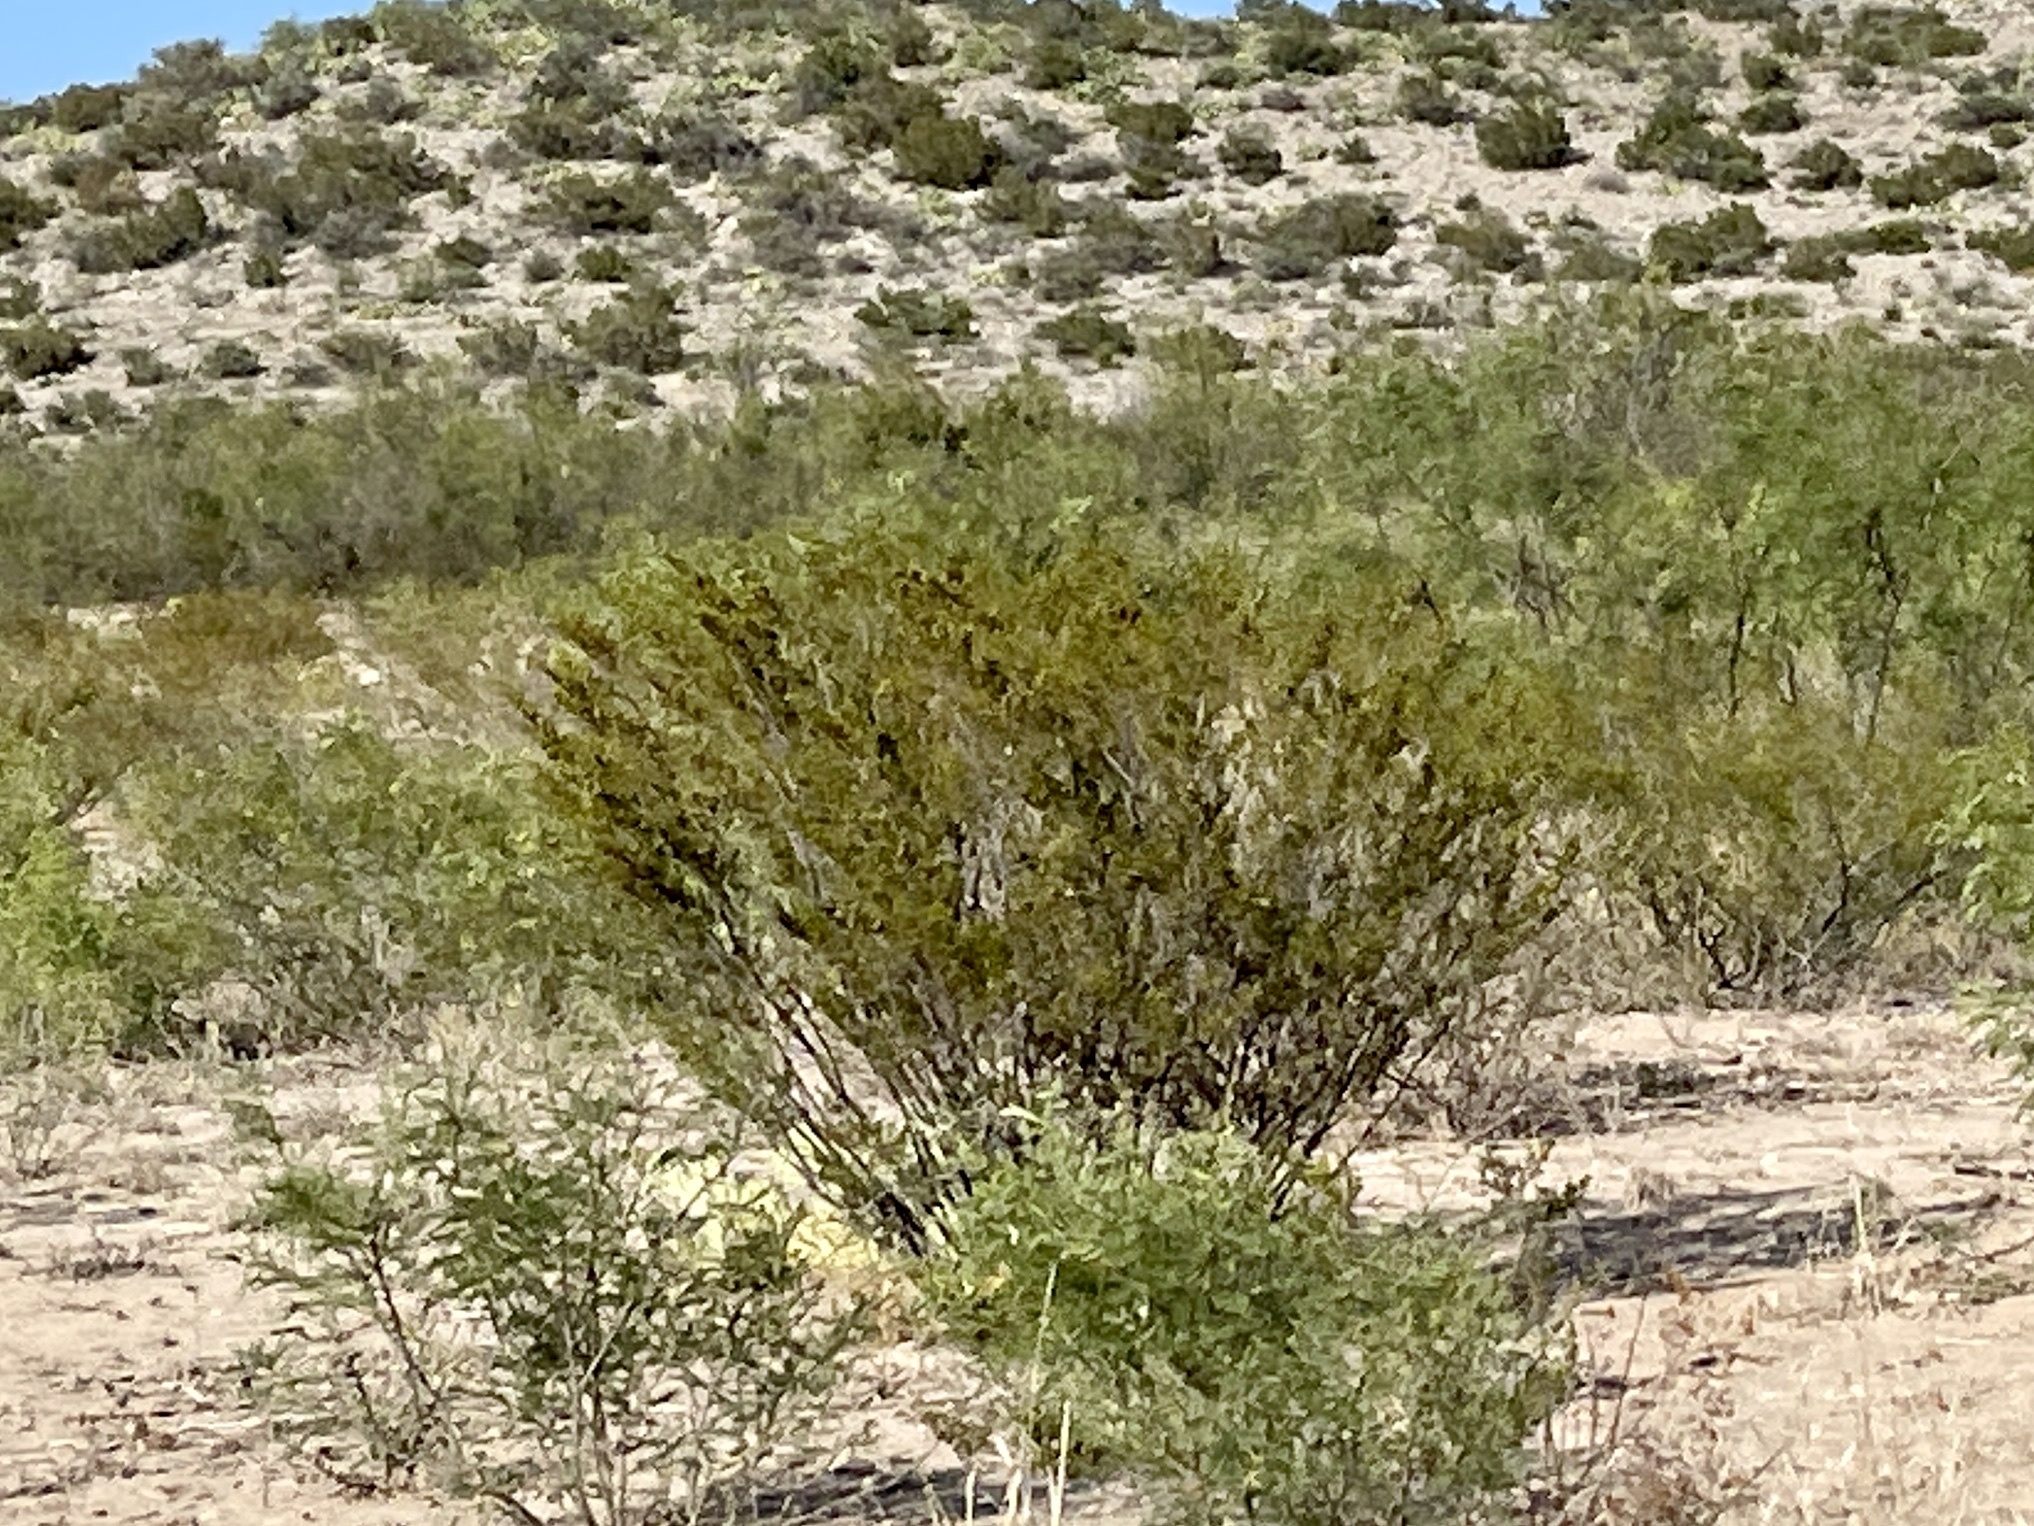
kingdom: Plantae
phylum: Tracheophyta
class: Magnoliopsida
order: Zygophyllales
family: Zygophyllaceae
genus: Larrea
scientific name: Larrea tridentata
